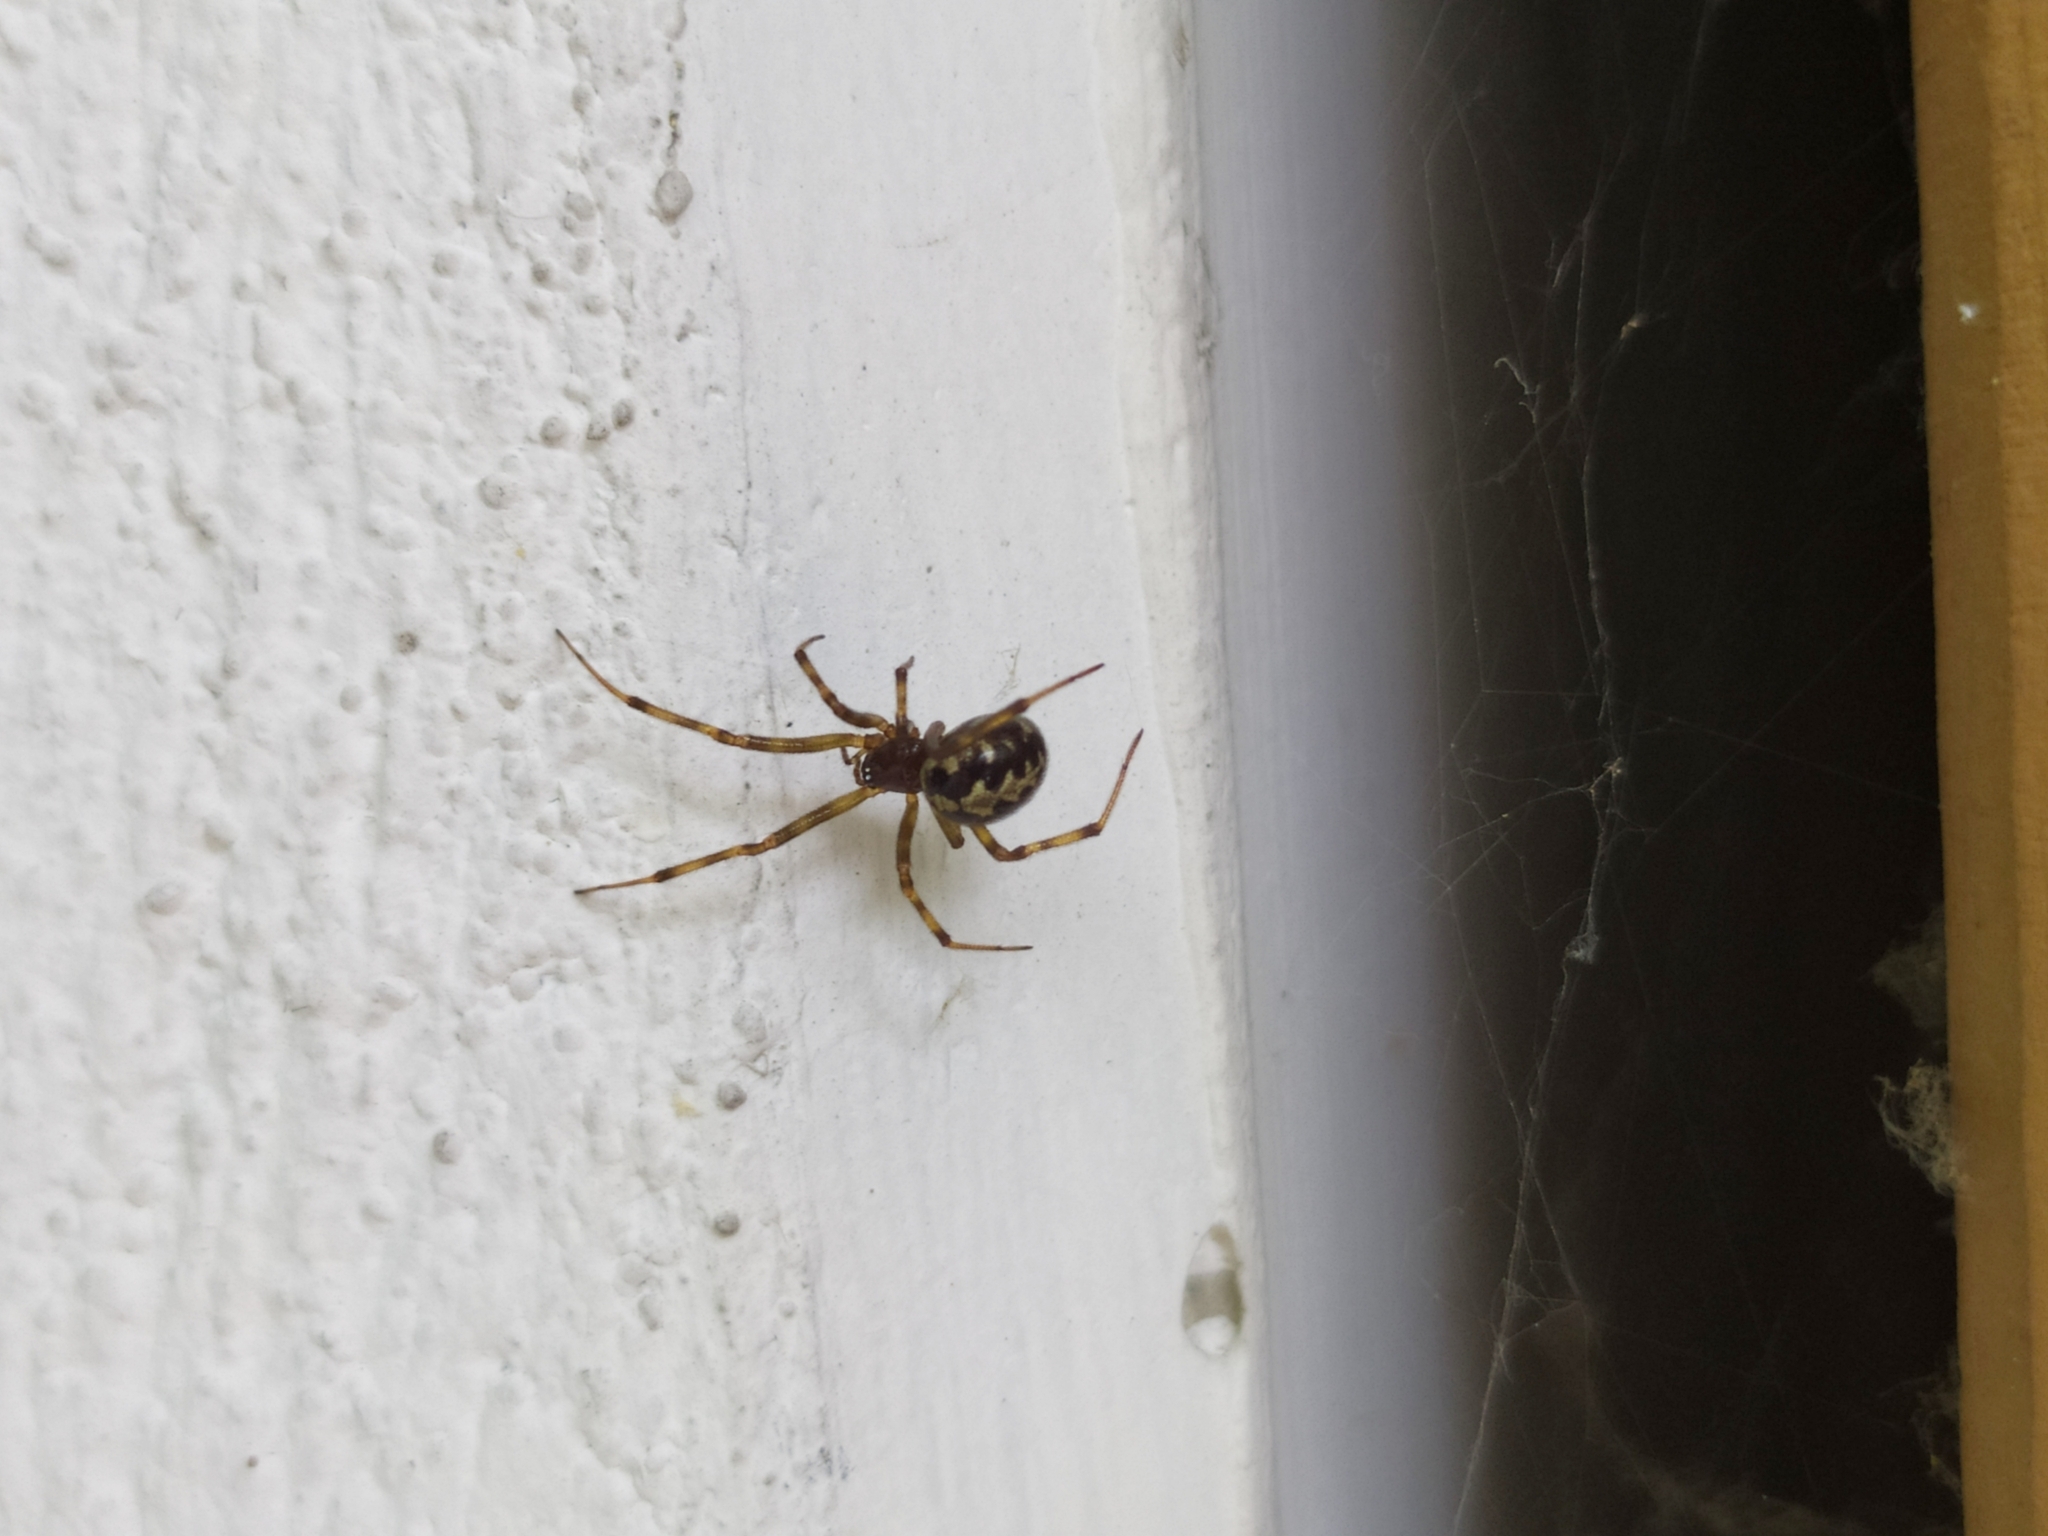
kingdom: Animalia
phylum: Arthropoda
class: Arachnida
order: Araneae
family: Theridiidae
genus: Steatoda
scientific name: Steatoda triangulosa
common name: Triangulate bud spider
